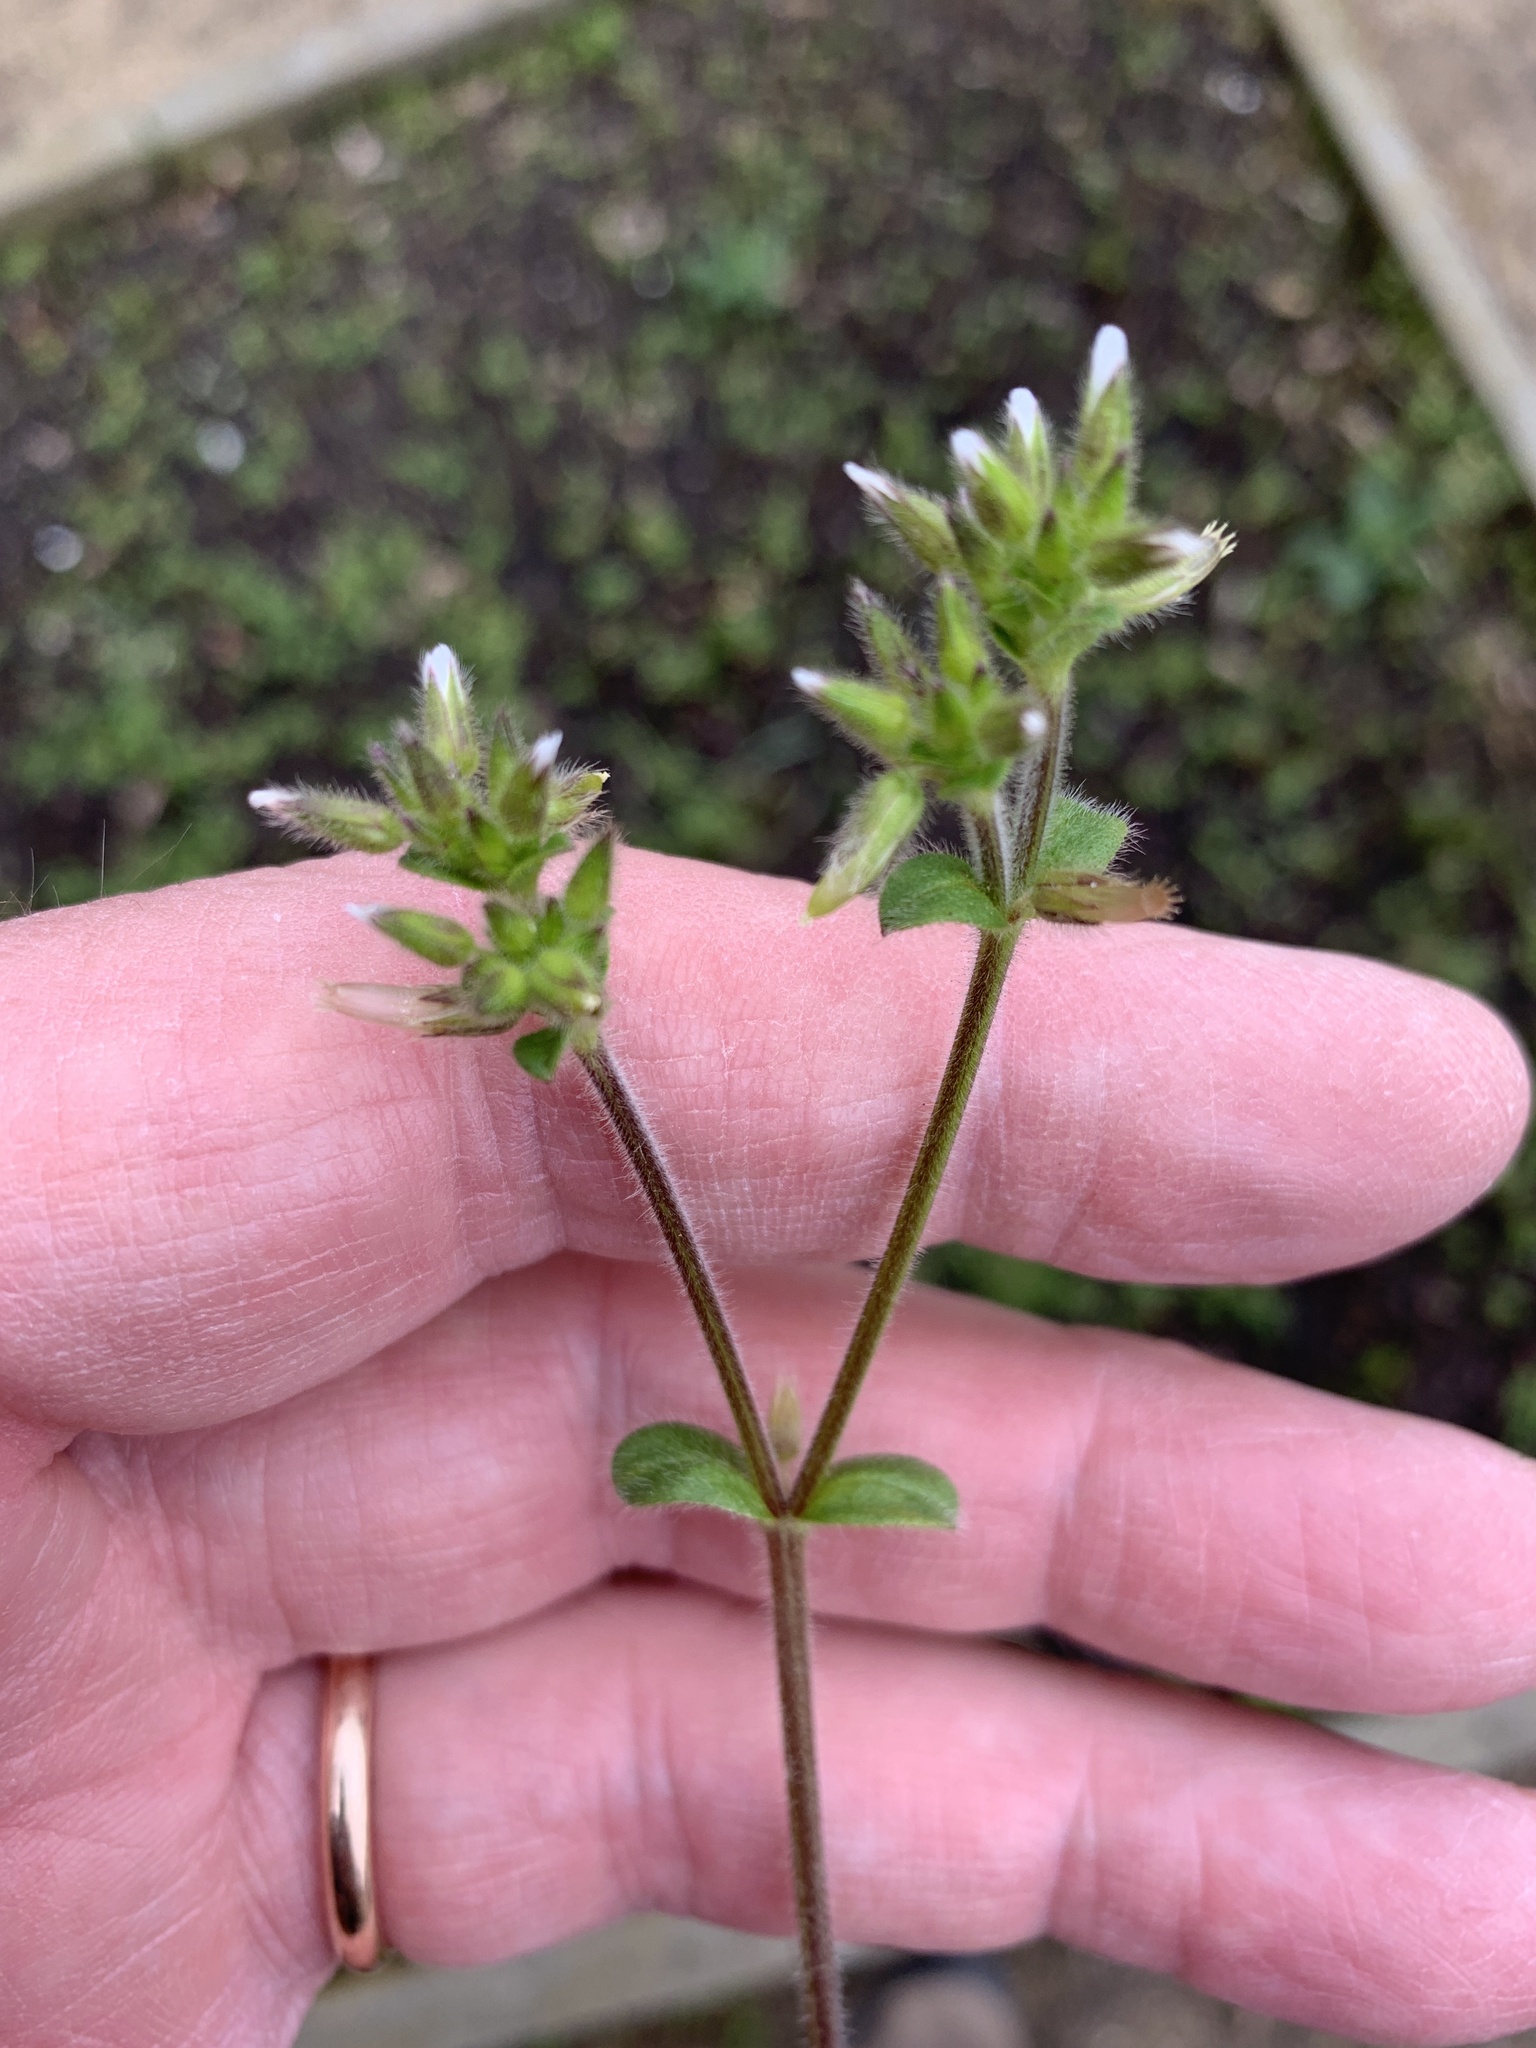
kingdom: Plantae
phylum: Tracheophyta
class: Magnoliopsida
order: Caryophyllales
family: Caryophyllaceae
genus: Cerastium
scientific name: Cerastium glomeratum
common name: Sticky chickweed
